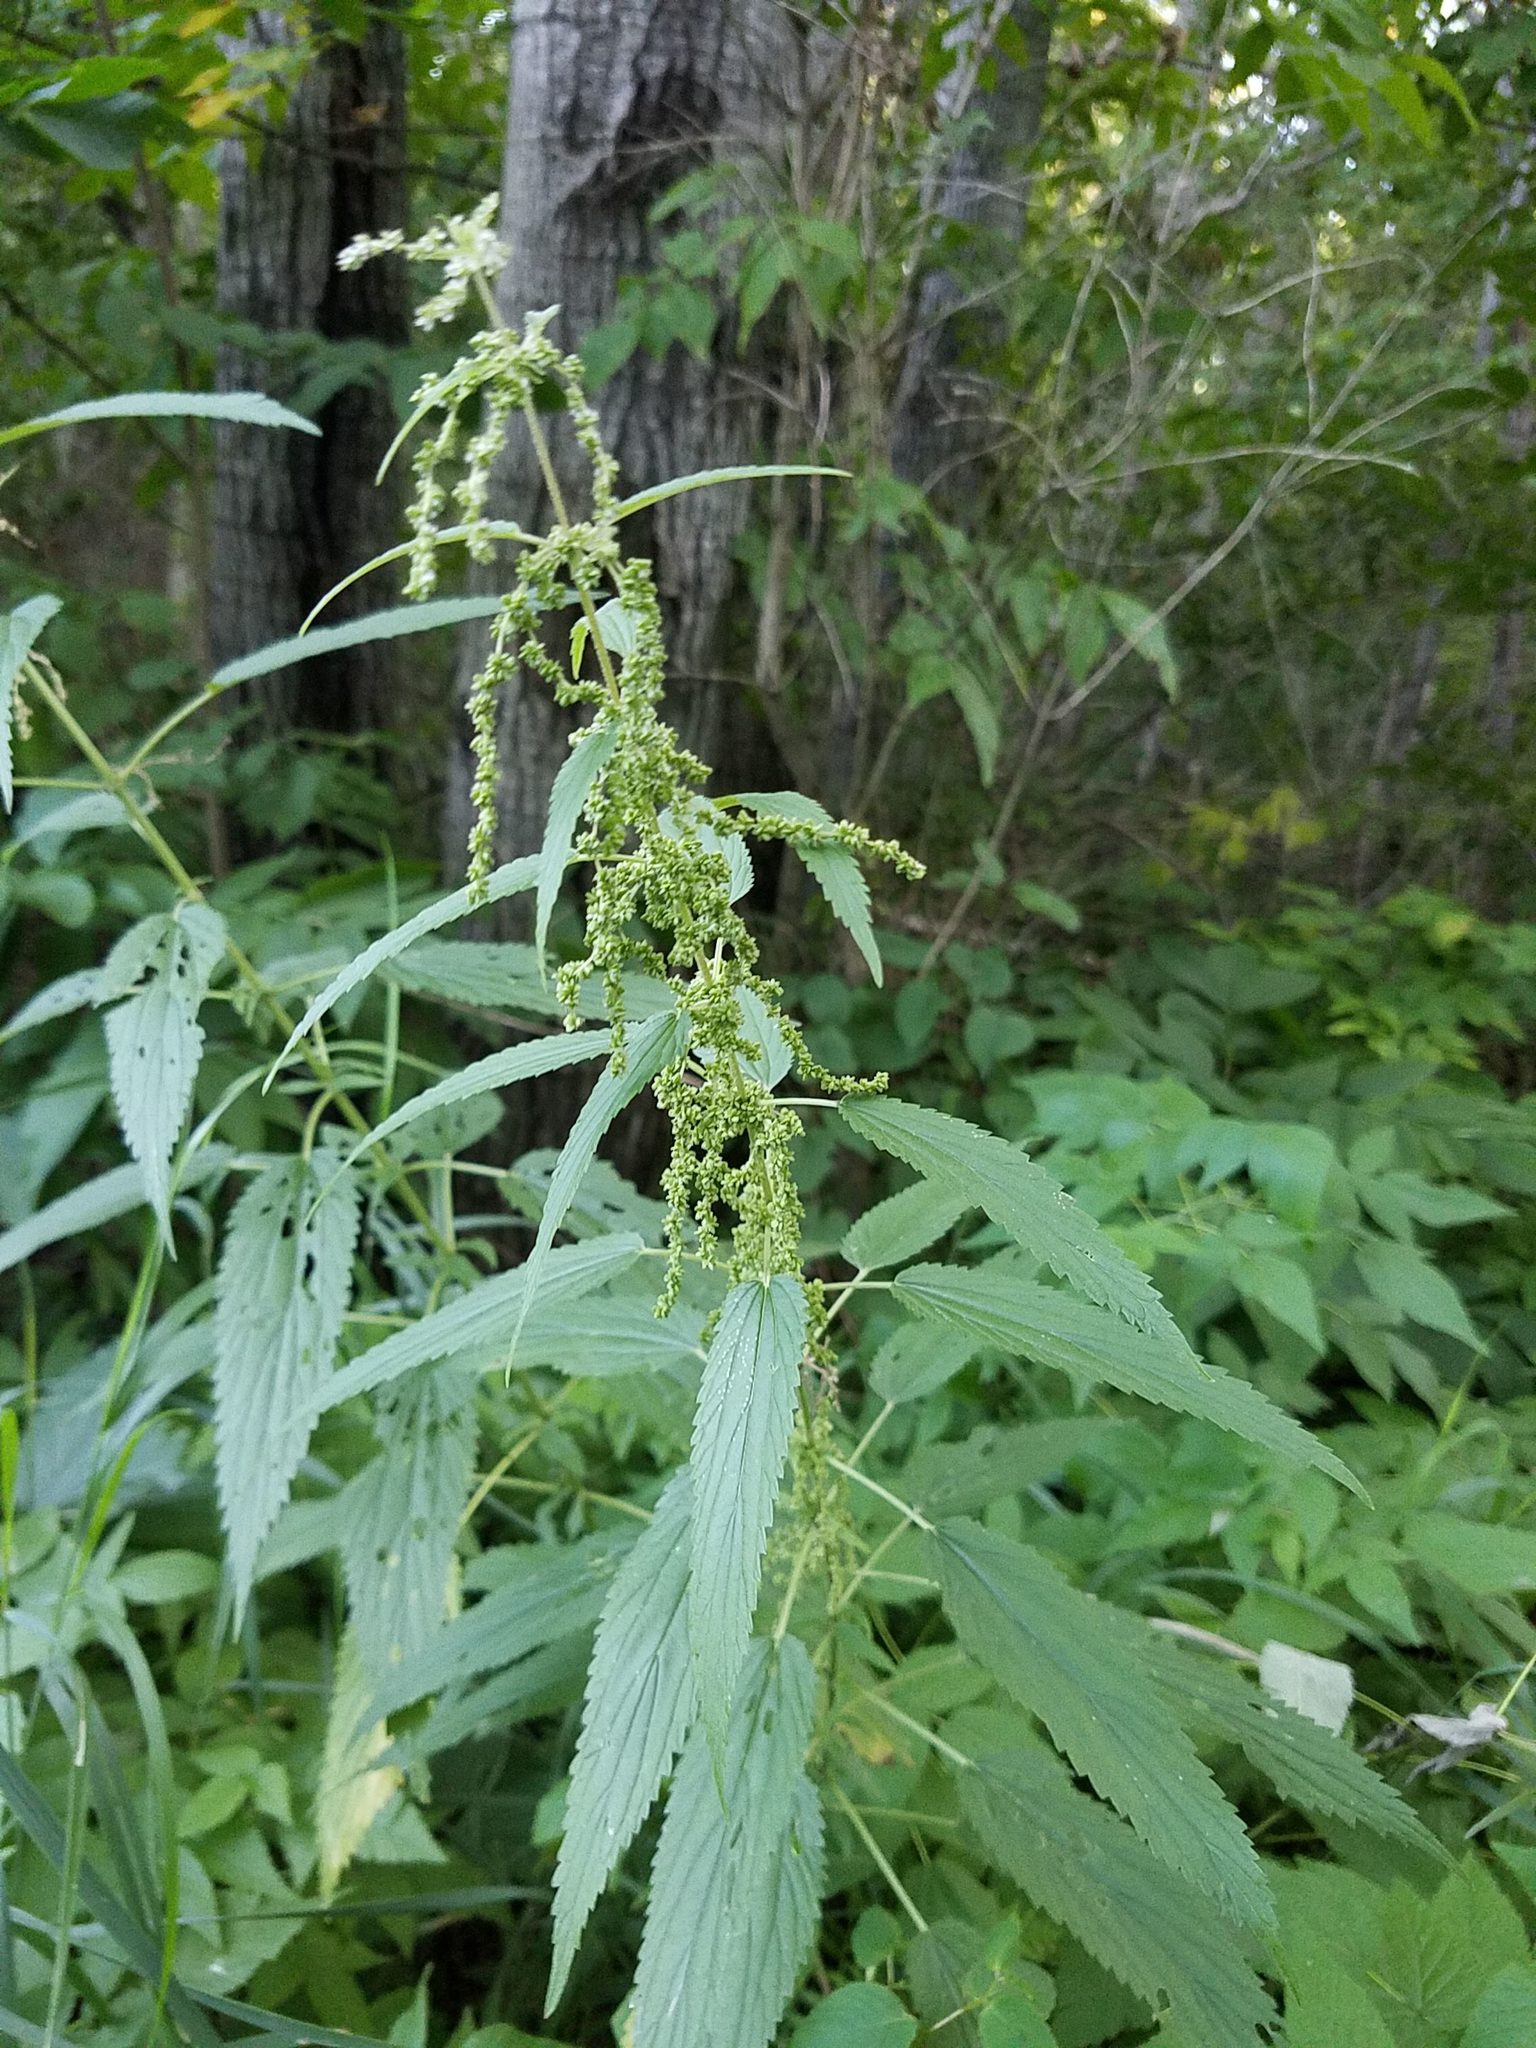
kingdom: Plantae
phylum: Tracheophyta
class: Magnoliopsida
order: Rosales
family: Urticaceae
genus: Urtica
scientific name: Urtica dioica
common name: Common nettle
